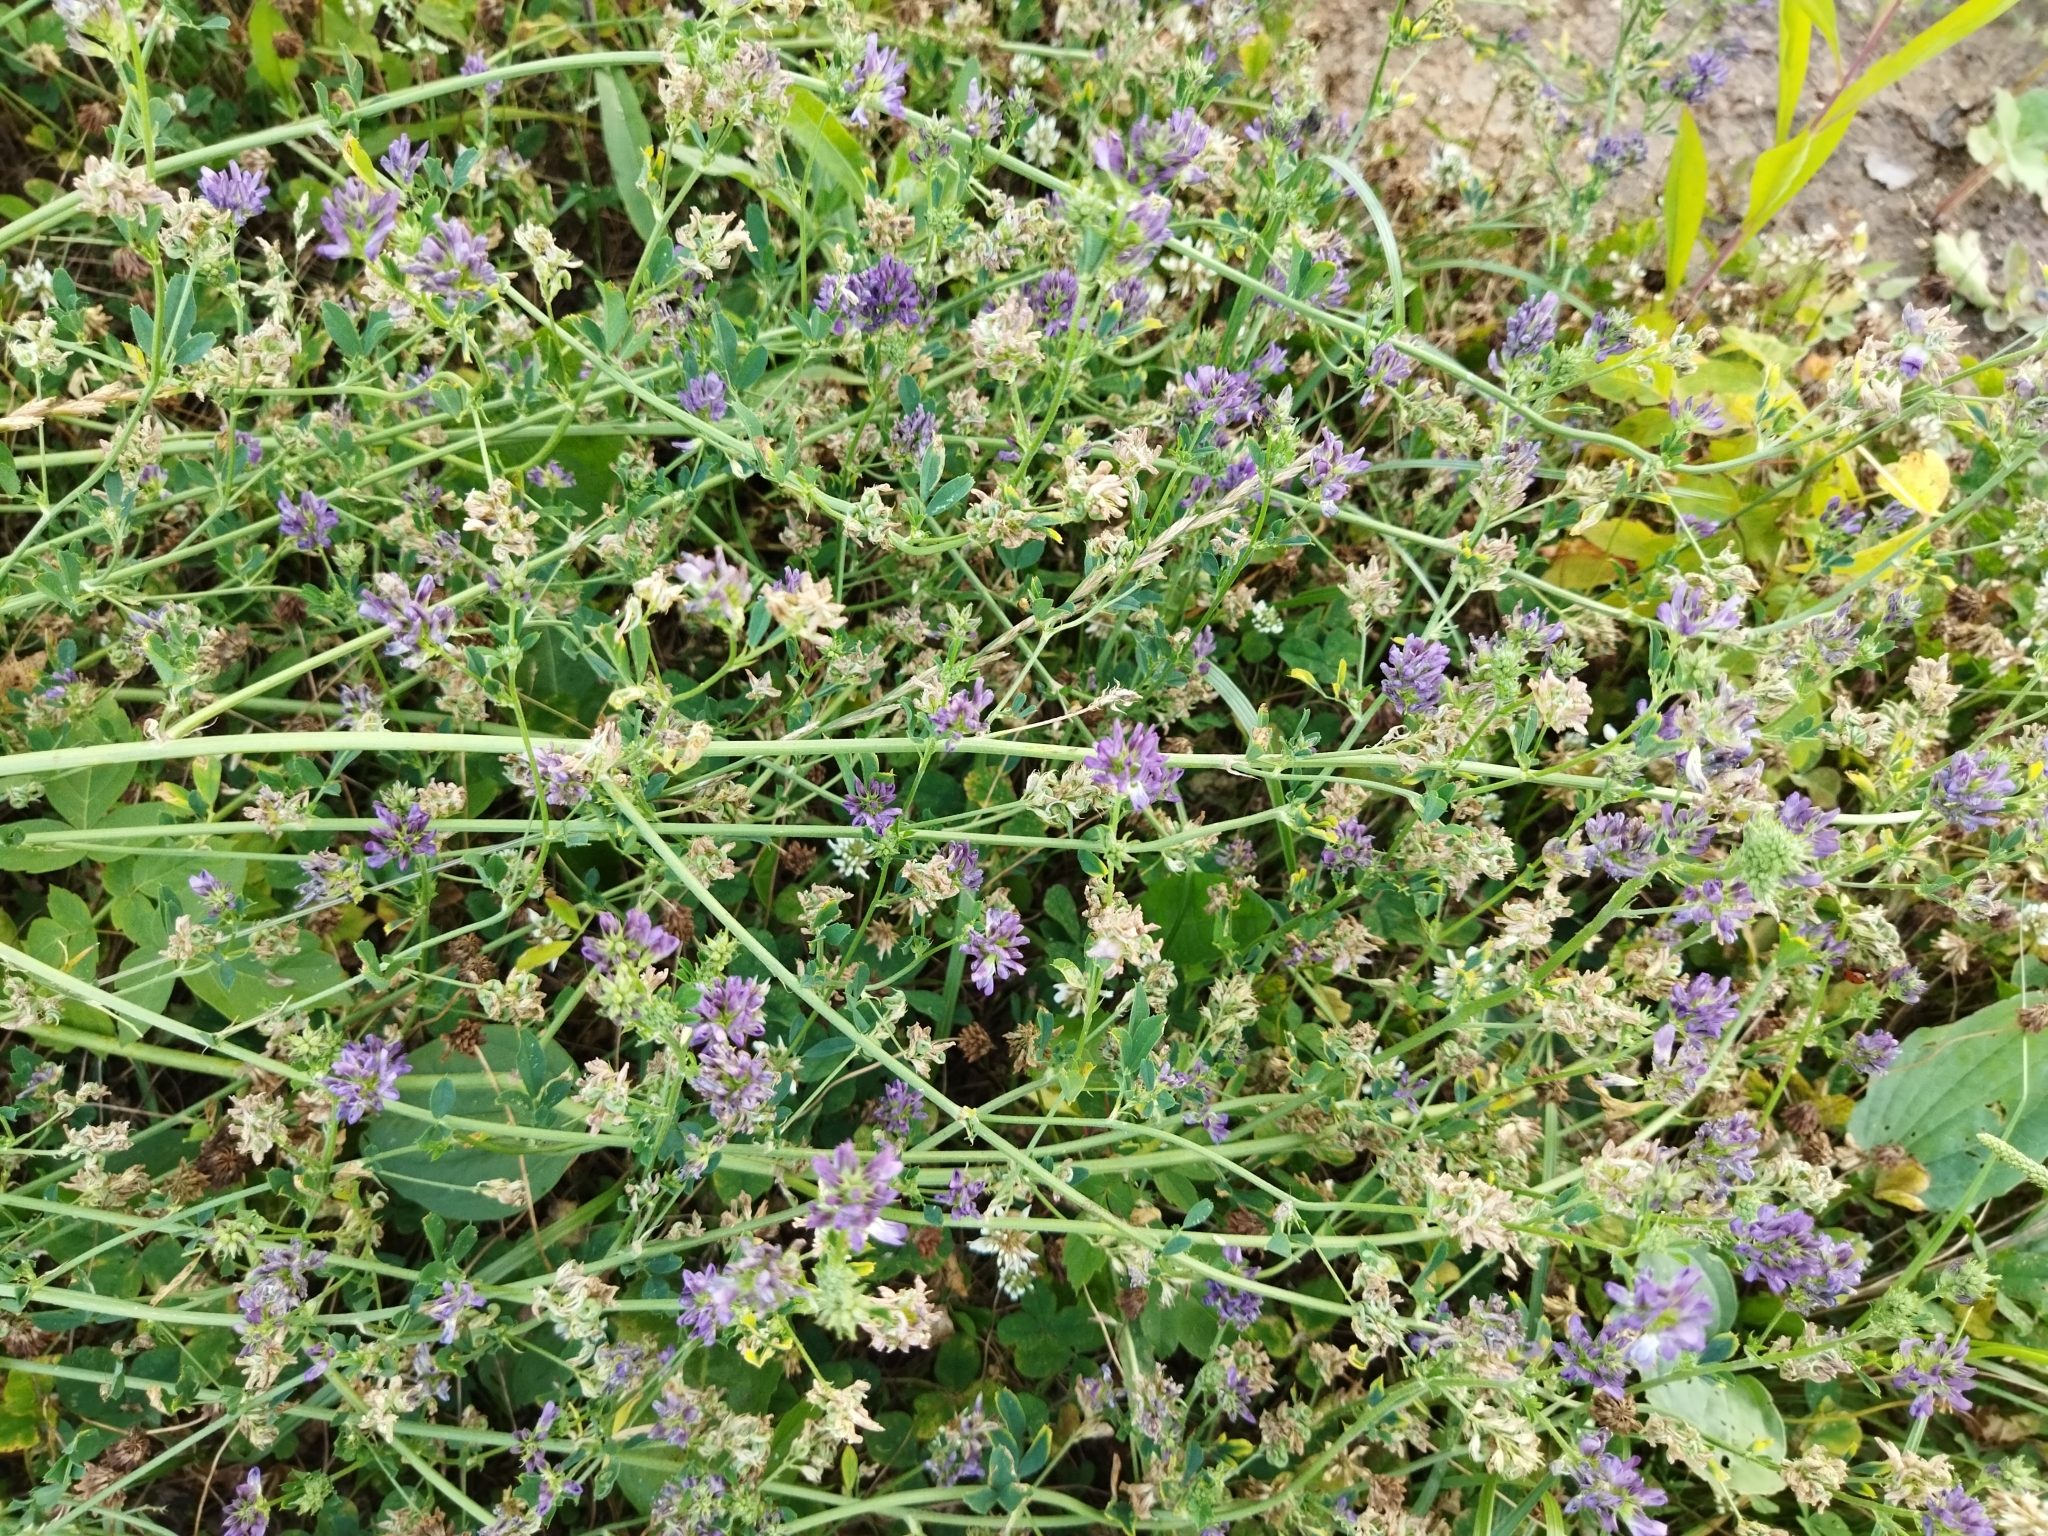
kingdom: Plantae
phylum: Tracheophyta
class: Magnoliopsida
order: Fabales
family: Fabaceae
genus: Medicago
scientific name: Medicago sativa
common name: Alfalfa
